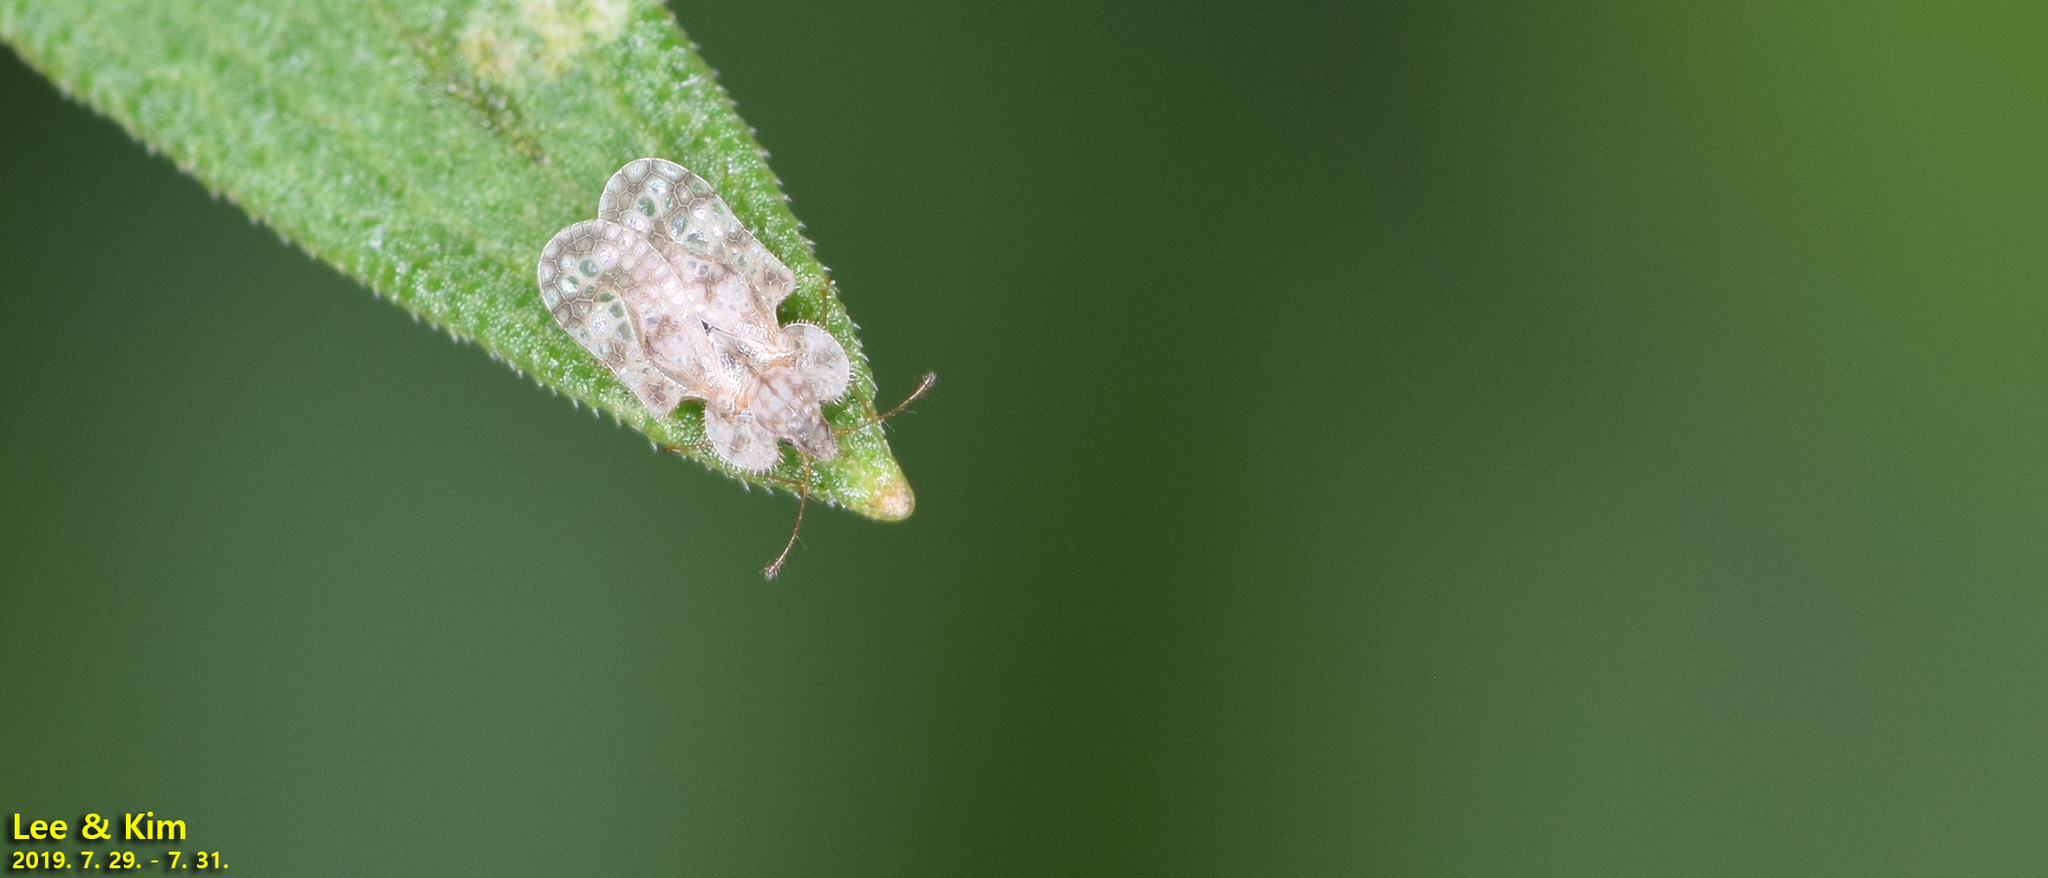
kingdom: Animalia
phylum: Arthropoda
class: Insecta
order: Hemiptera
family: Tingidae
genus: Corythucha
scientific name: Corythucha marmorata
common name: Chrysanthemum lace bug
